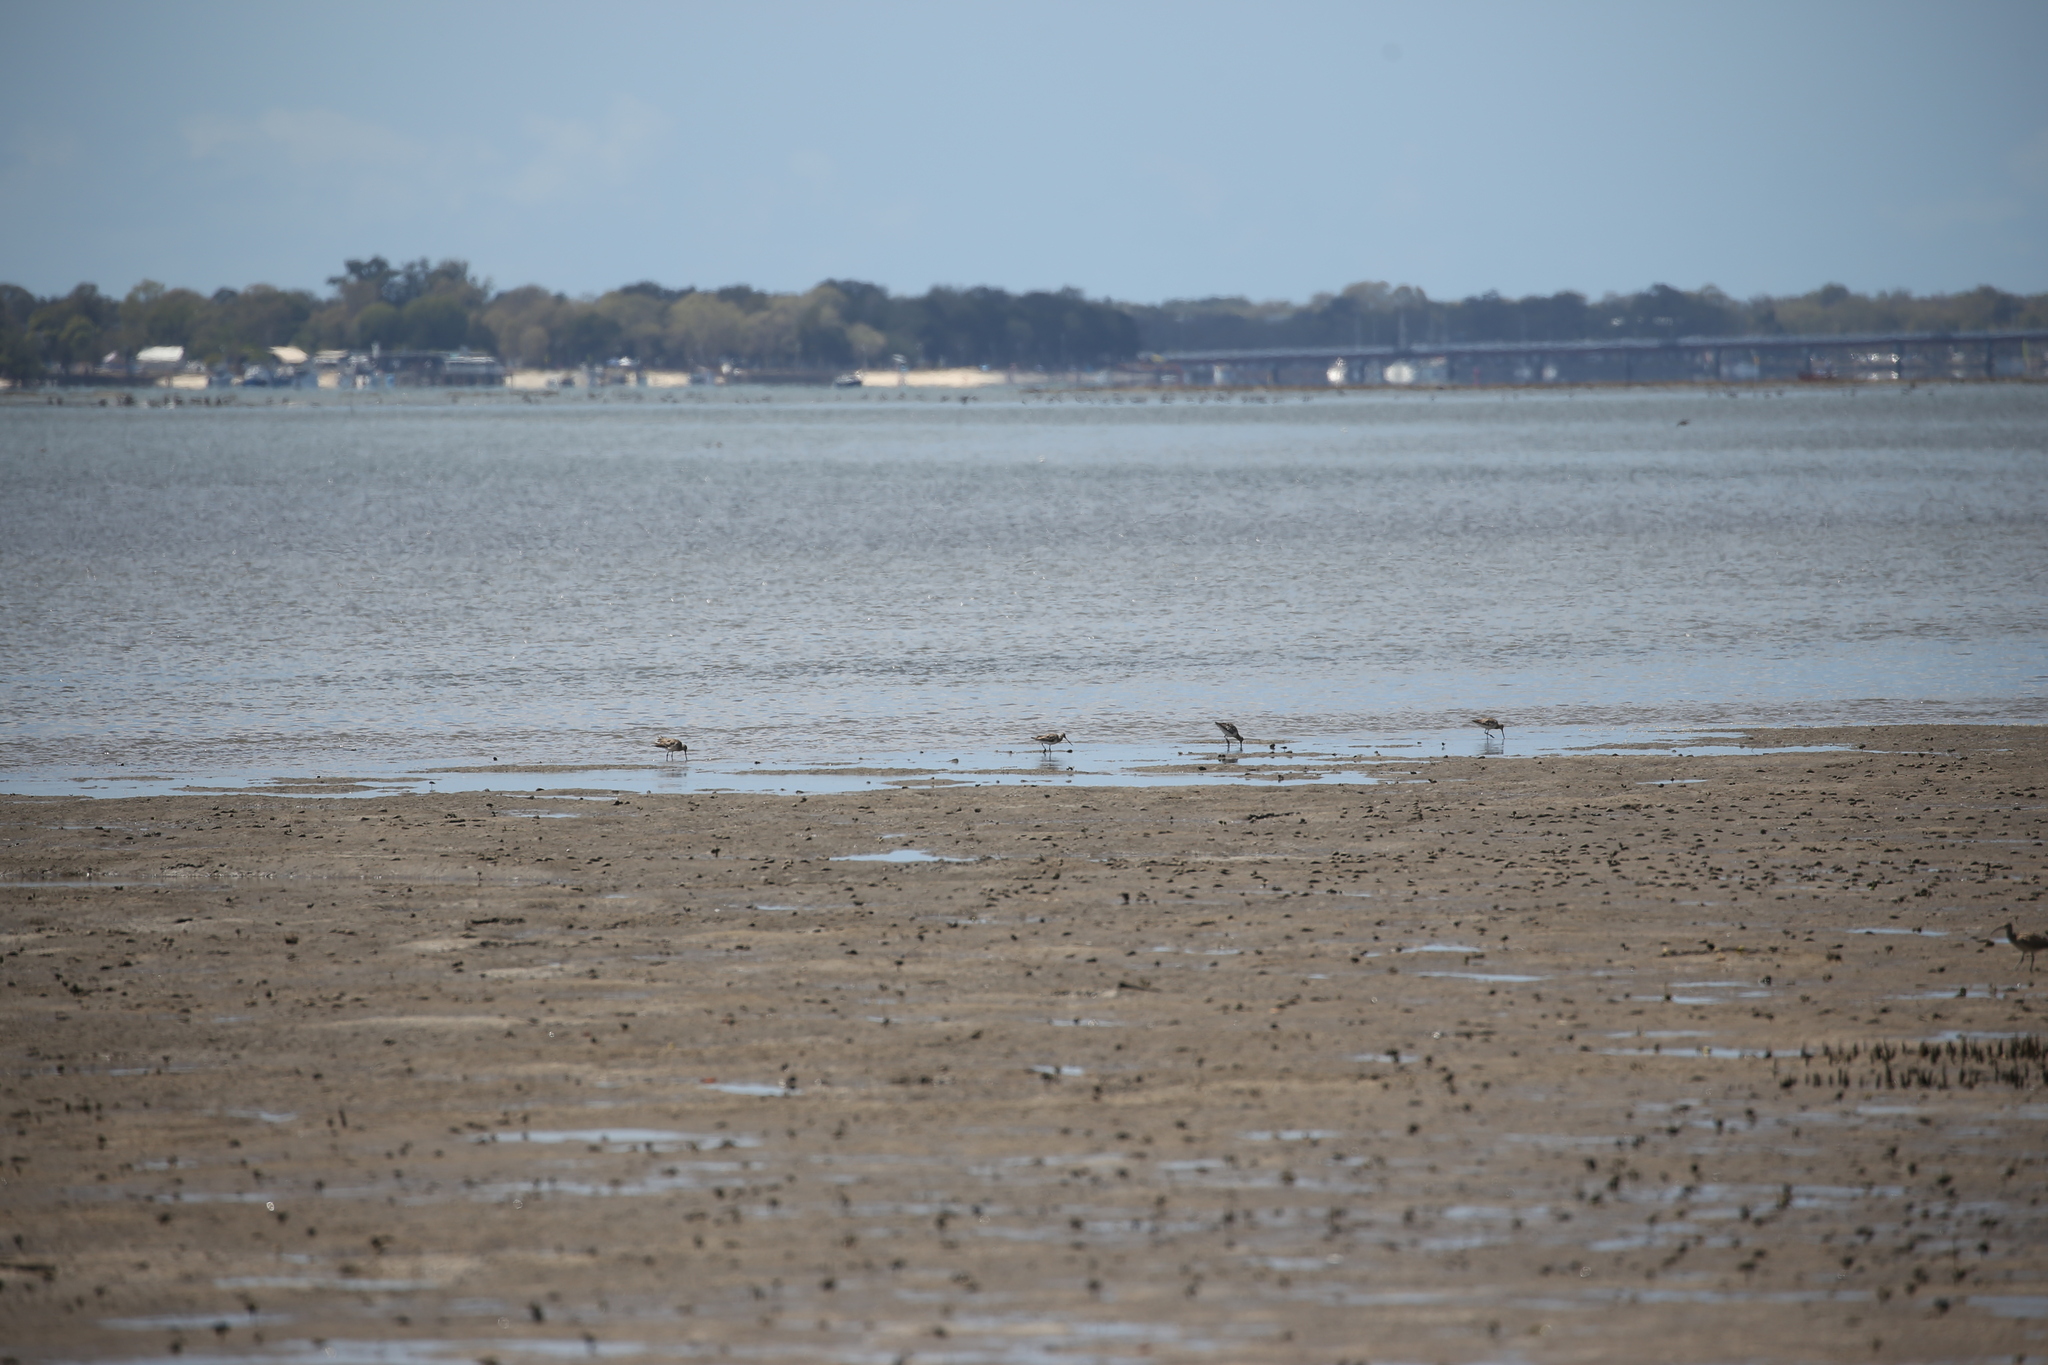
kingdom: Animalia
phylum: Chordata
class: Aves
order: Charadriiformes
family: Scolopacidae
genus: Limosa
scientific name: Limosa lapponica
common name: Bar-tailed godwit
